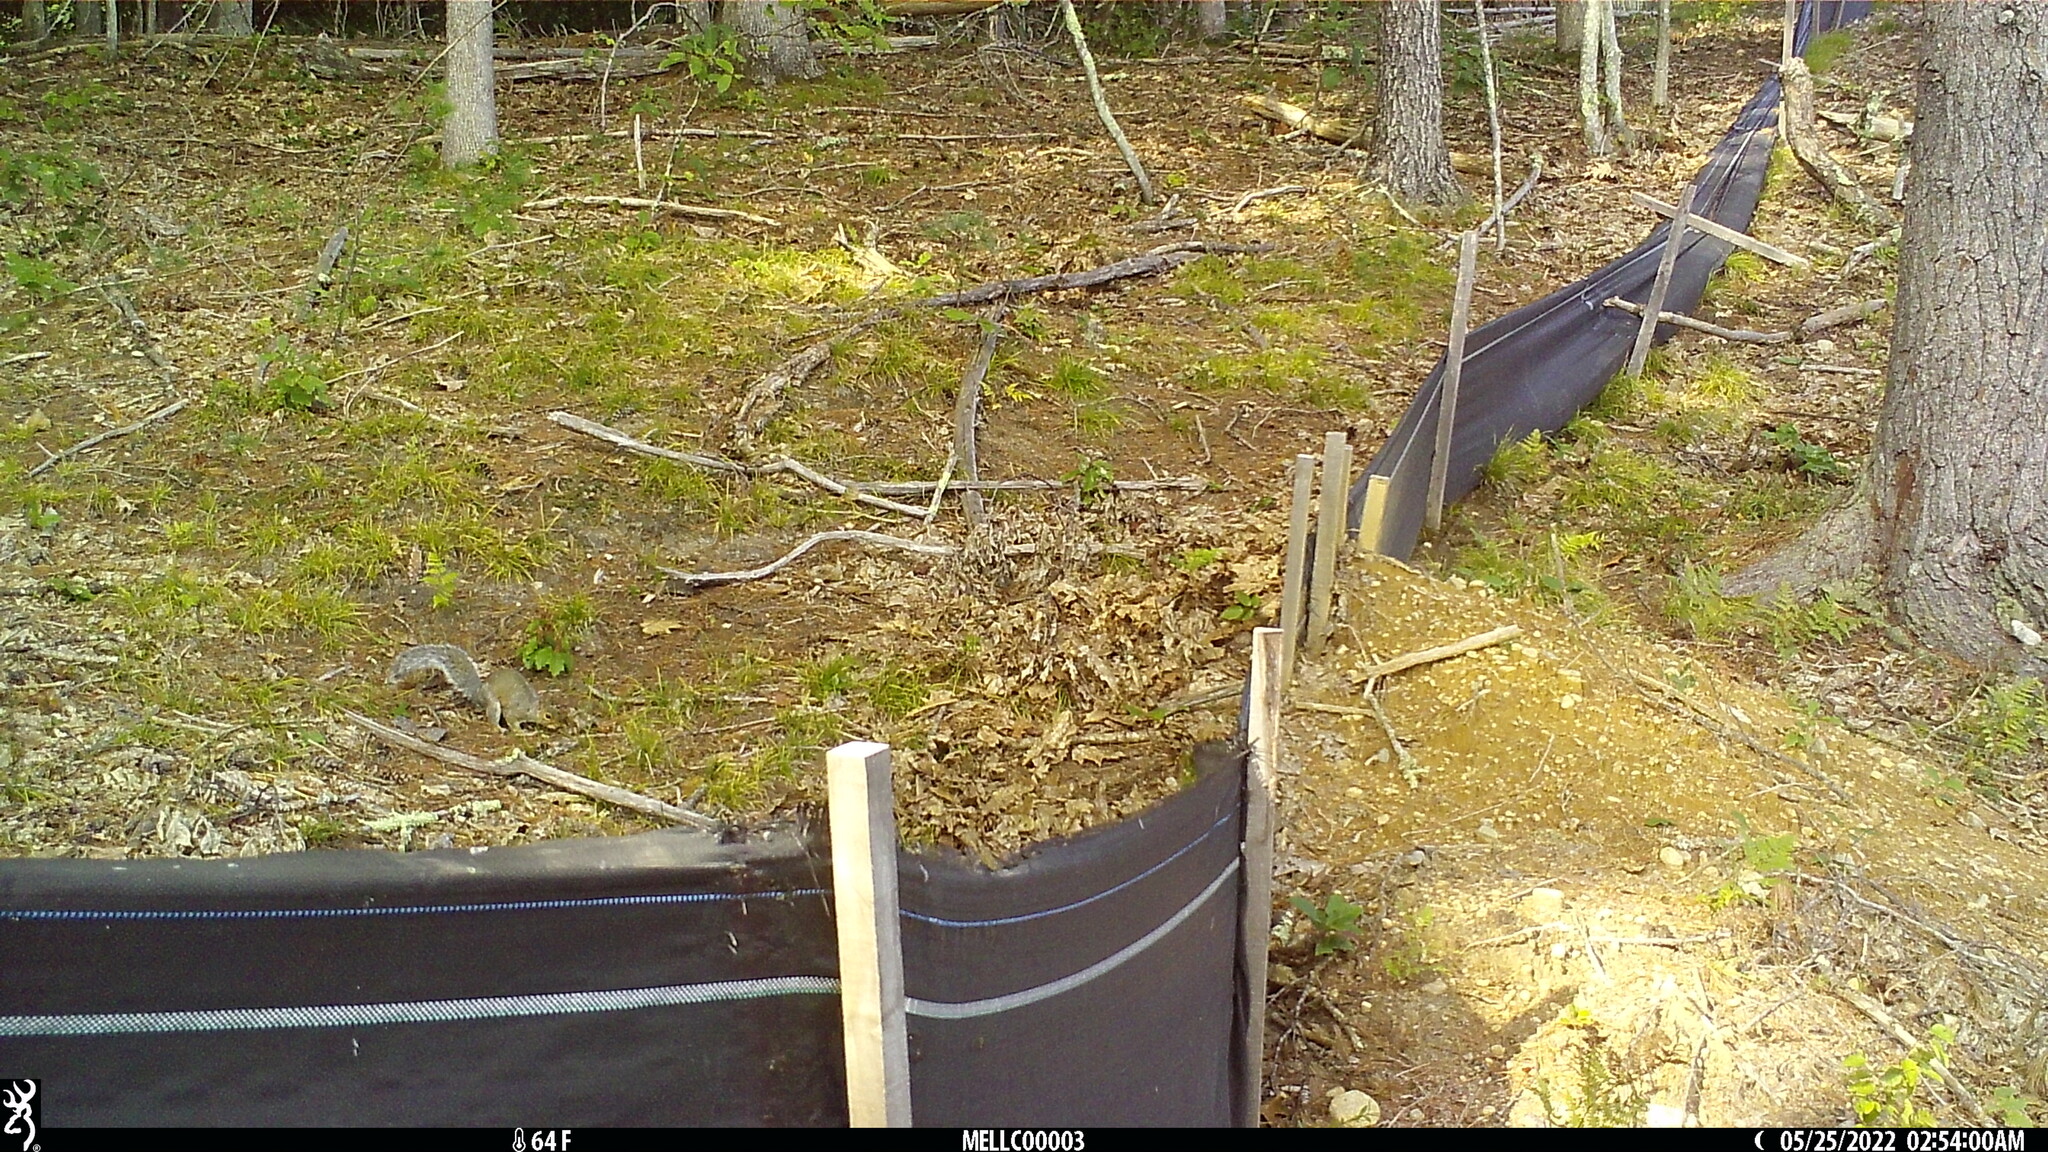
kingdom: Animalia
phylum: Chordata
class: Mammalia
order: Rodentia
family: Sciuridae
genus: Sciurus
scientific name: Sciurus carolinensis
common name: Eastern gray squirrel
